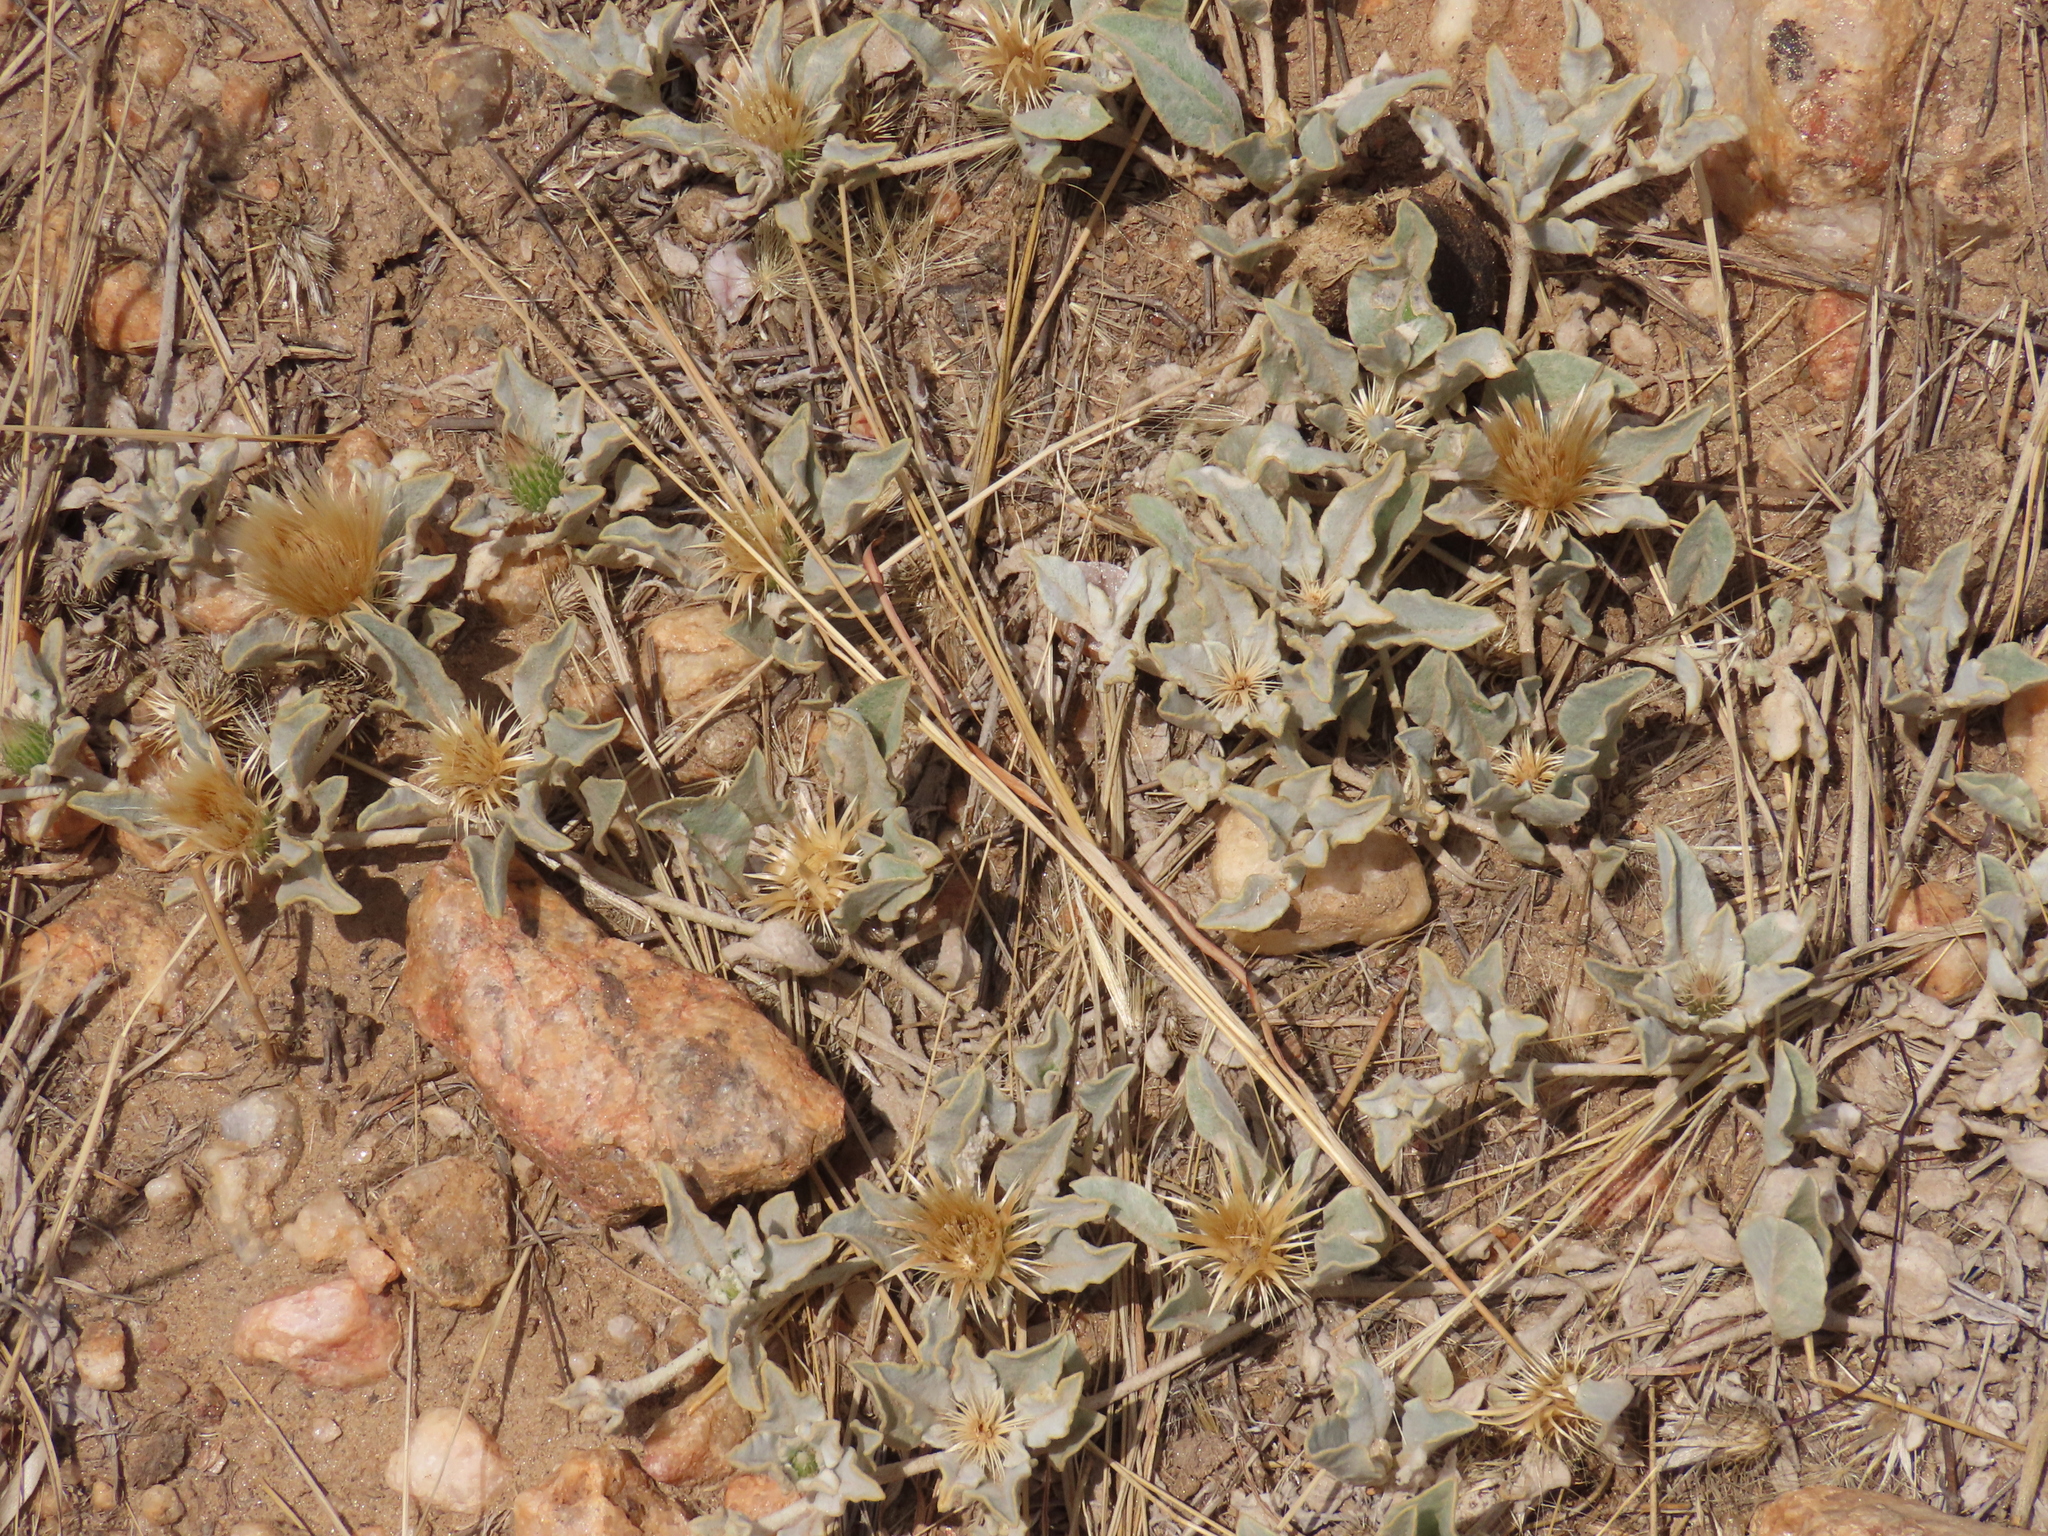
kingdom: Plantae
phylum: Tracheophyta
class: Magnoliopsida
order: Asterales
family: Asteraceae
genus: Dicoma
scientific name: Dicoma capensis
